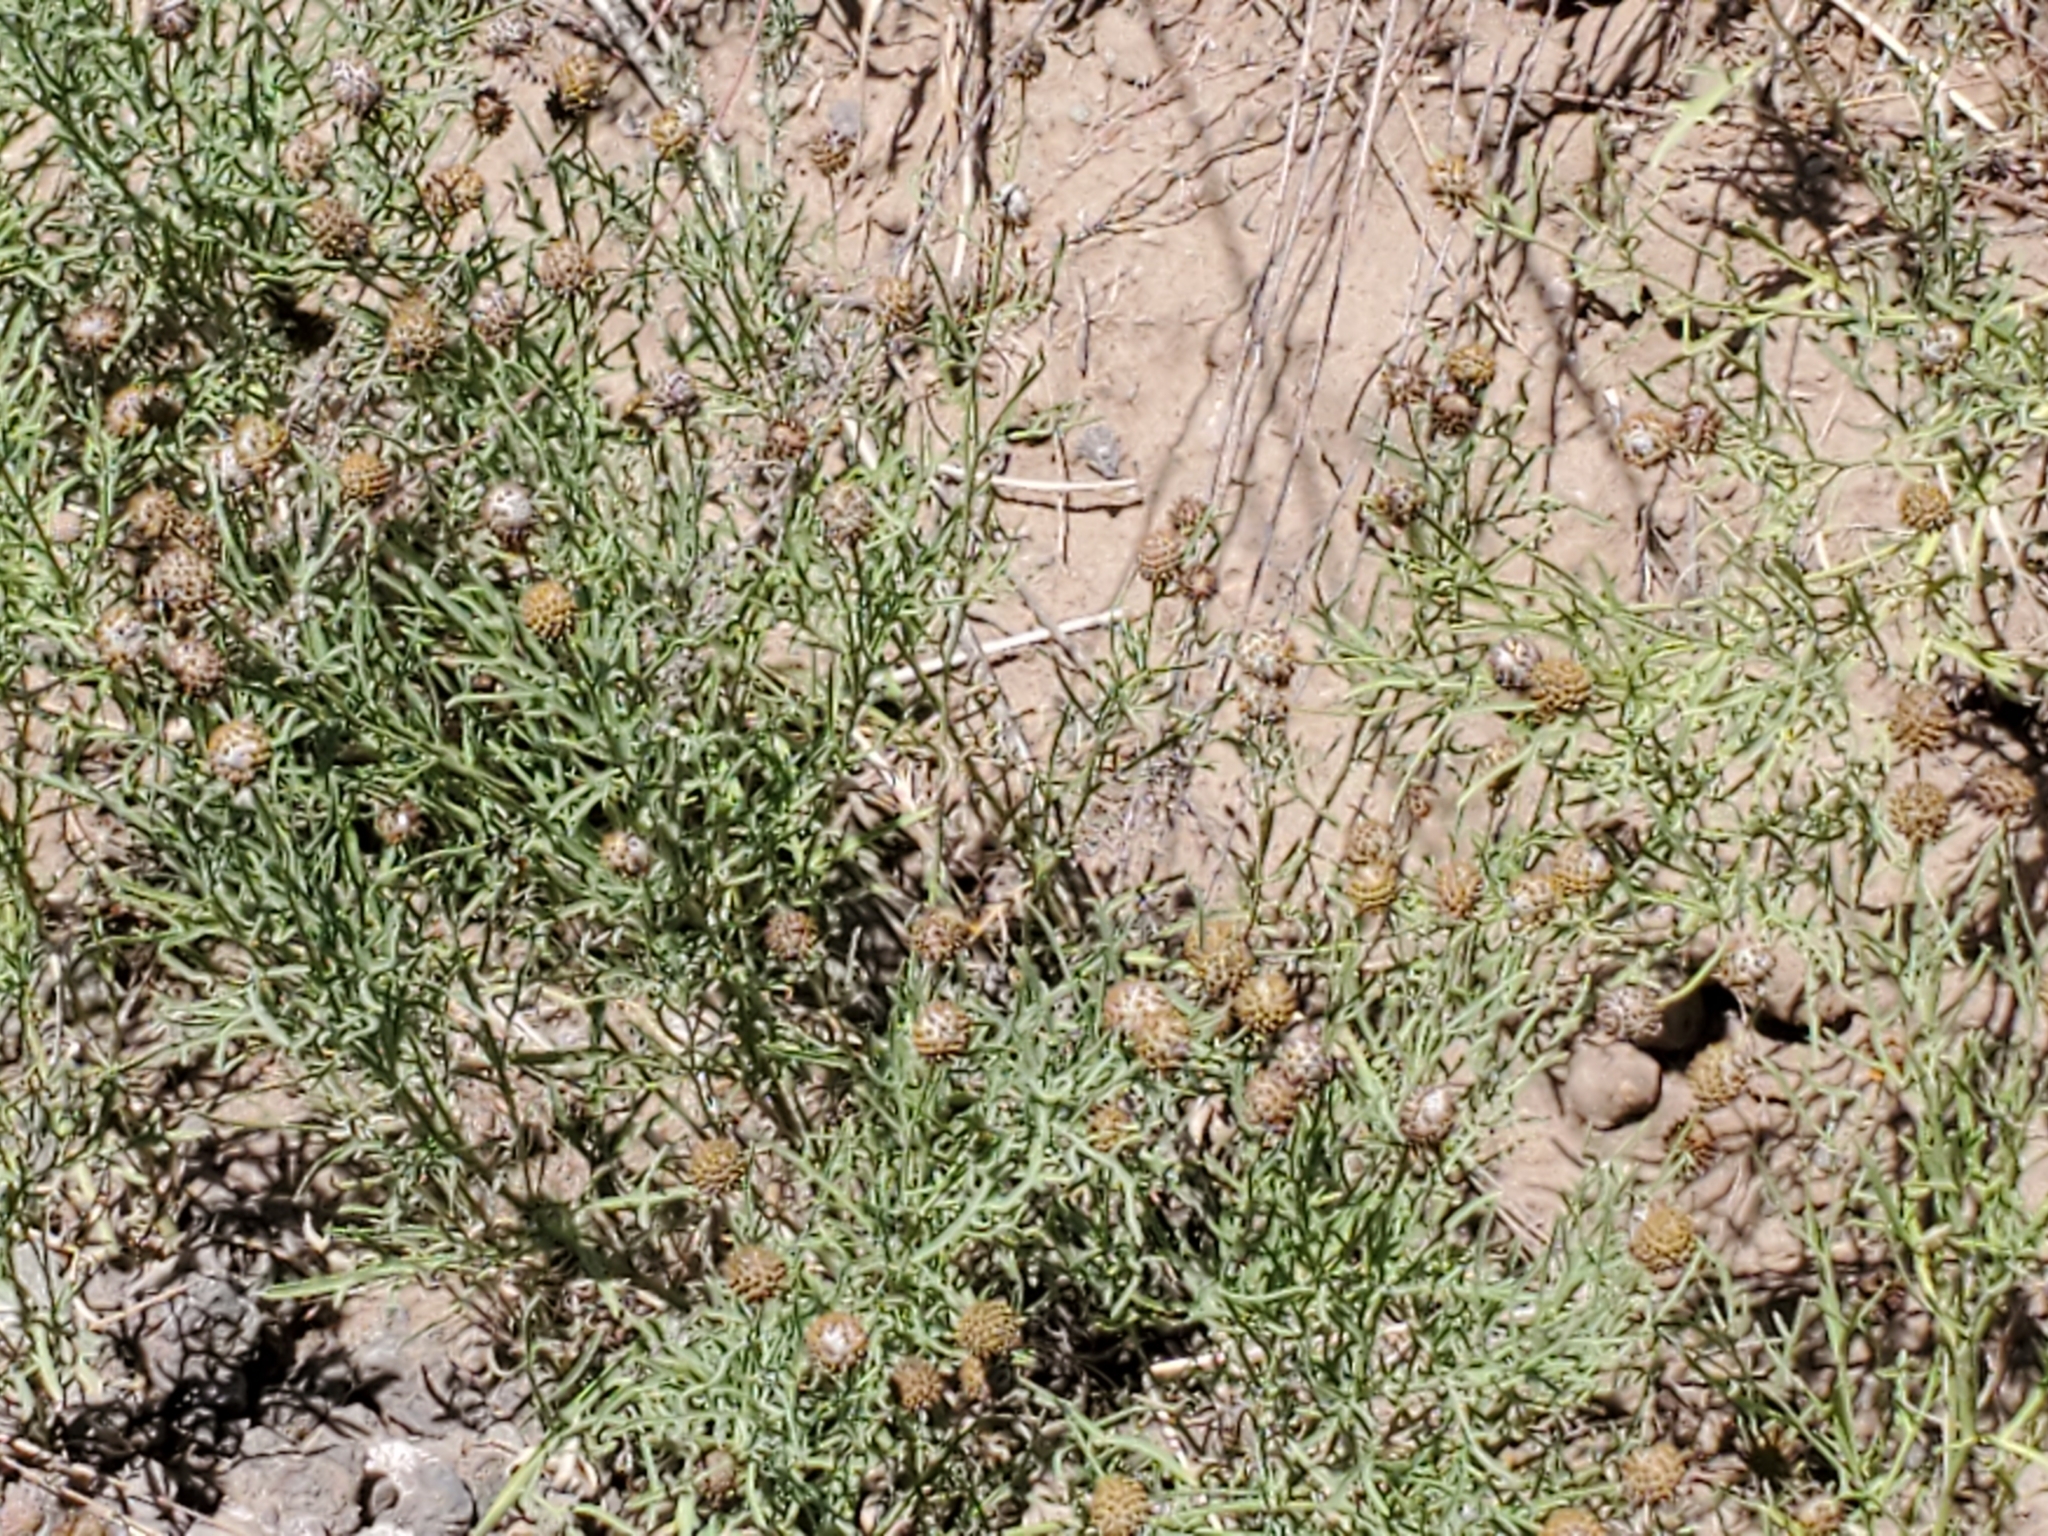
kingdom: Plantae
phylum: Tracheophyta
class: Magnoliopsida
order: Asterales
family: Asteraceae
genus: Ratibida
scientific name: Ratibida tagetes
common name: Green mexican-hat
